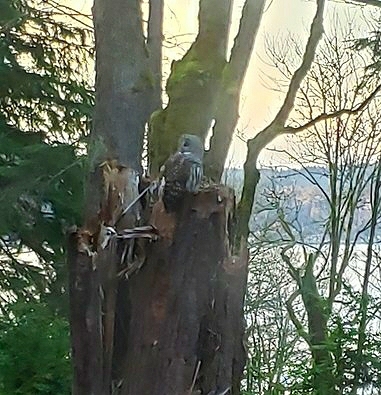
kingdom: Animalia
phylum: Chordata
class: Aves
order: Strigiformes
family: Strigidae
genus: Strix
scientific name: Strix varia
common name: Barred owl
